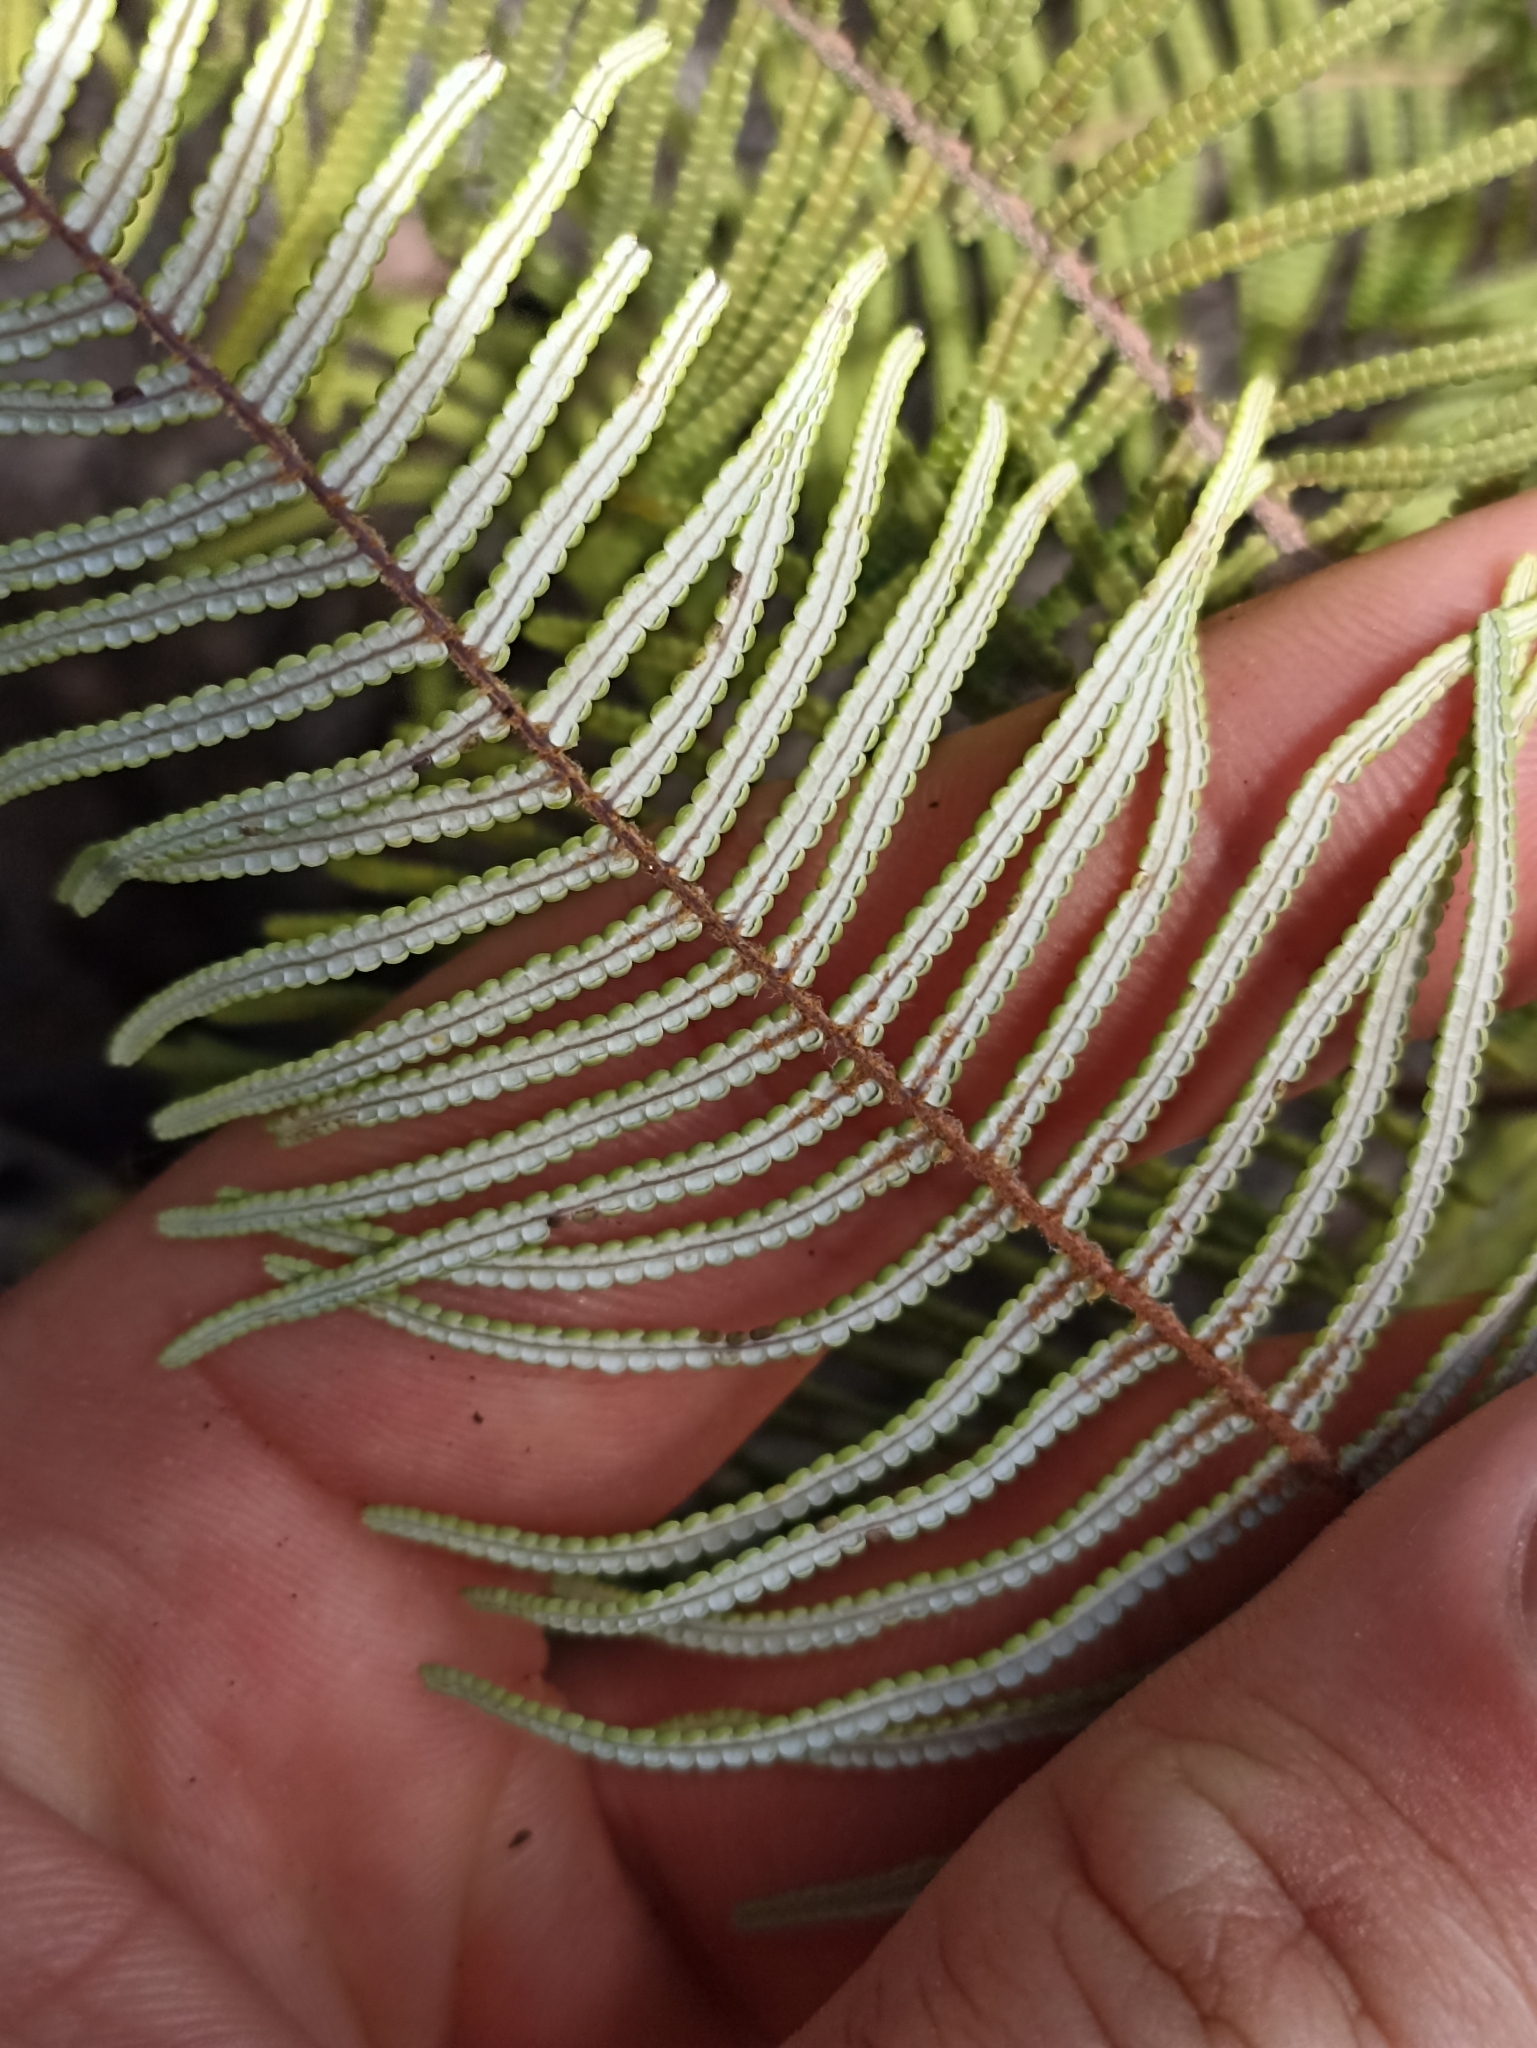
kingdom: Plantae
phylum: Tracheophyta
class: Polypodiopsida
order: Gleicheniales
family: Gleicheniaceae
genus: Gleichenia
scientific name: Gleichenia dicarpa
